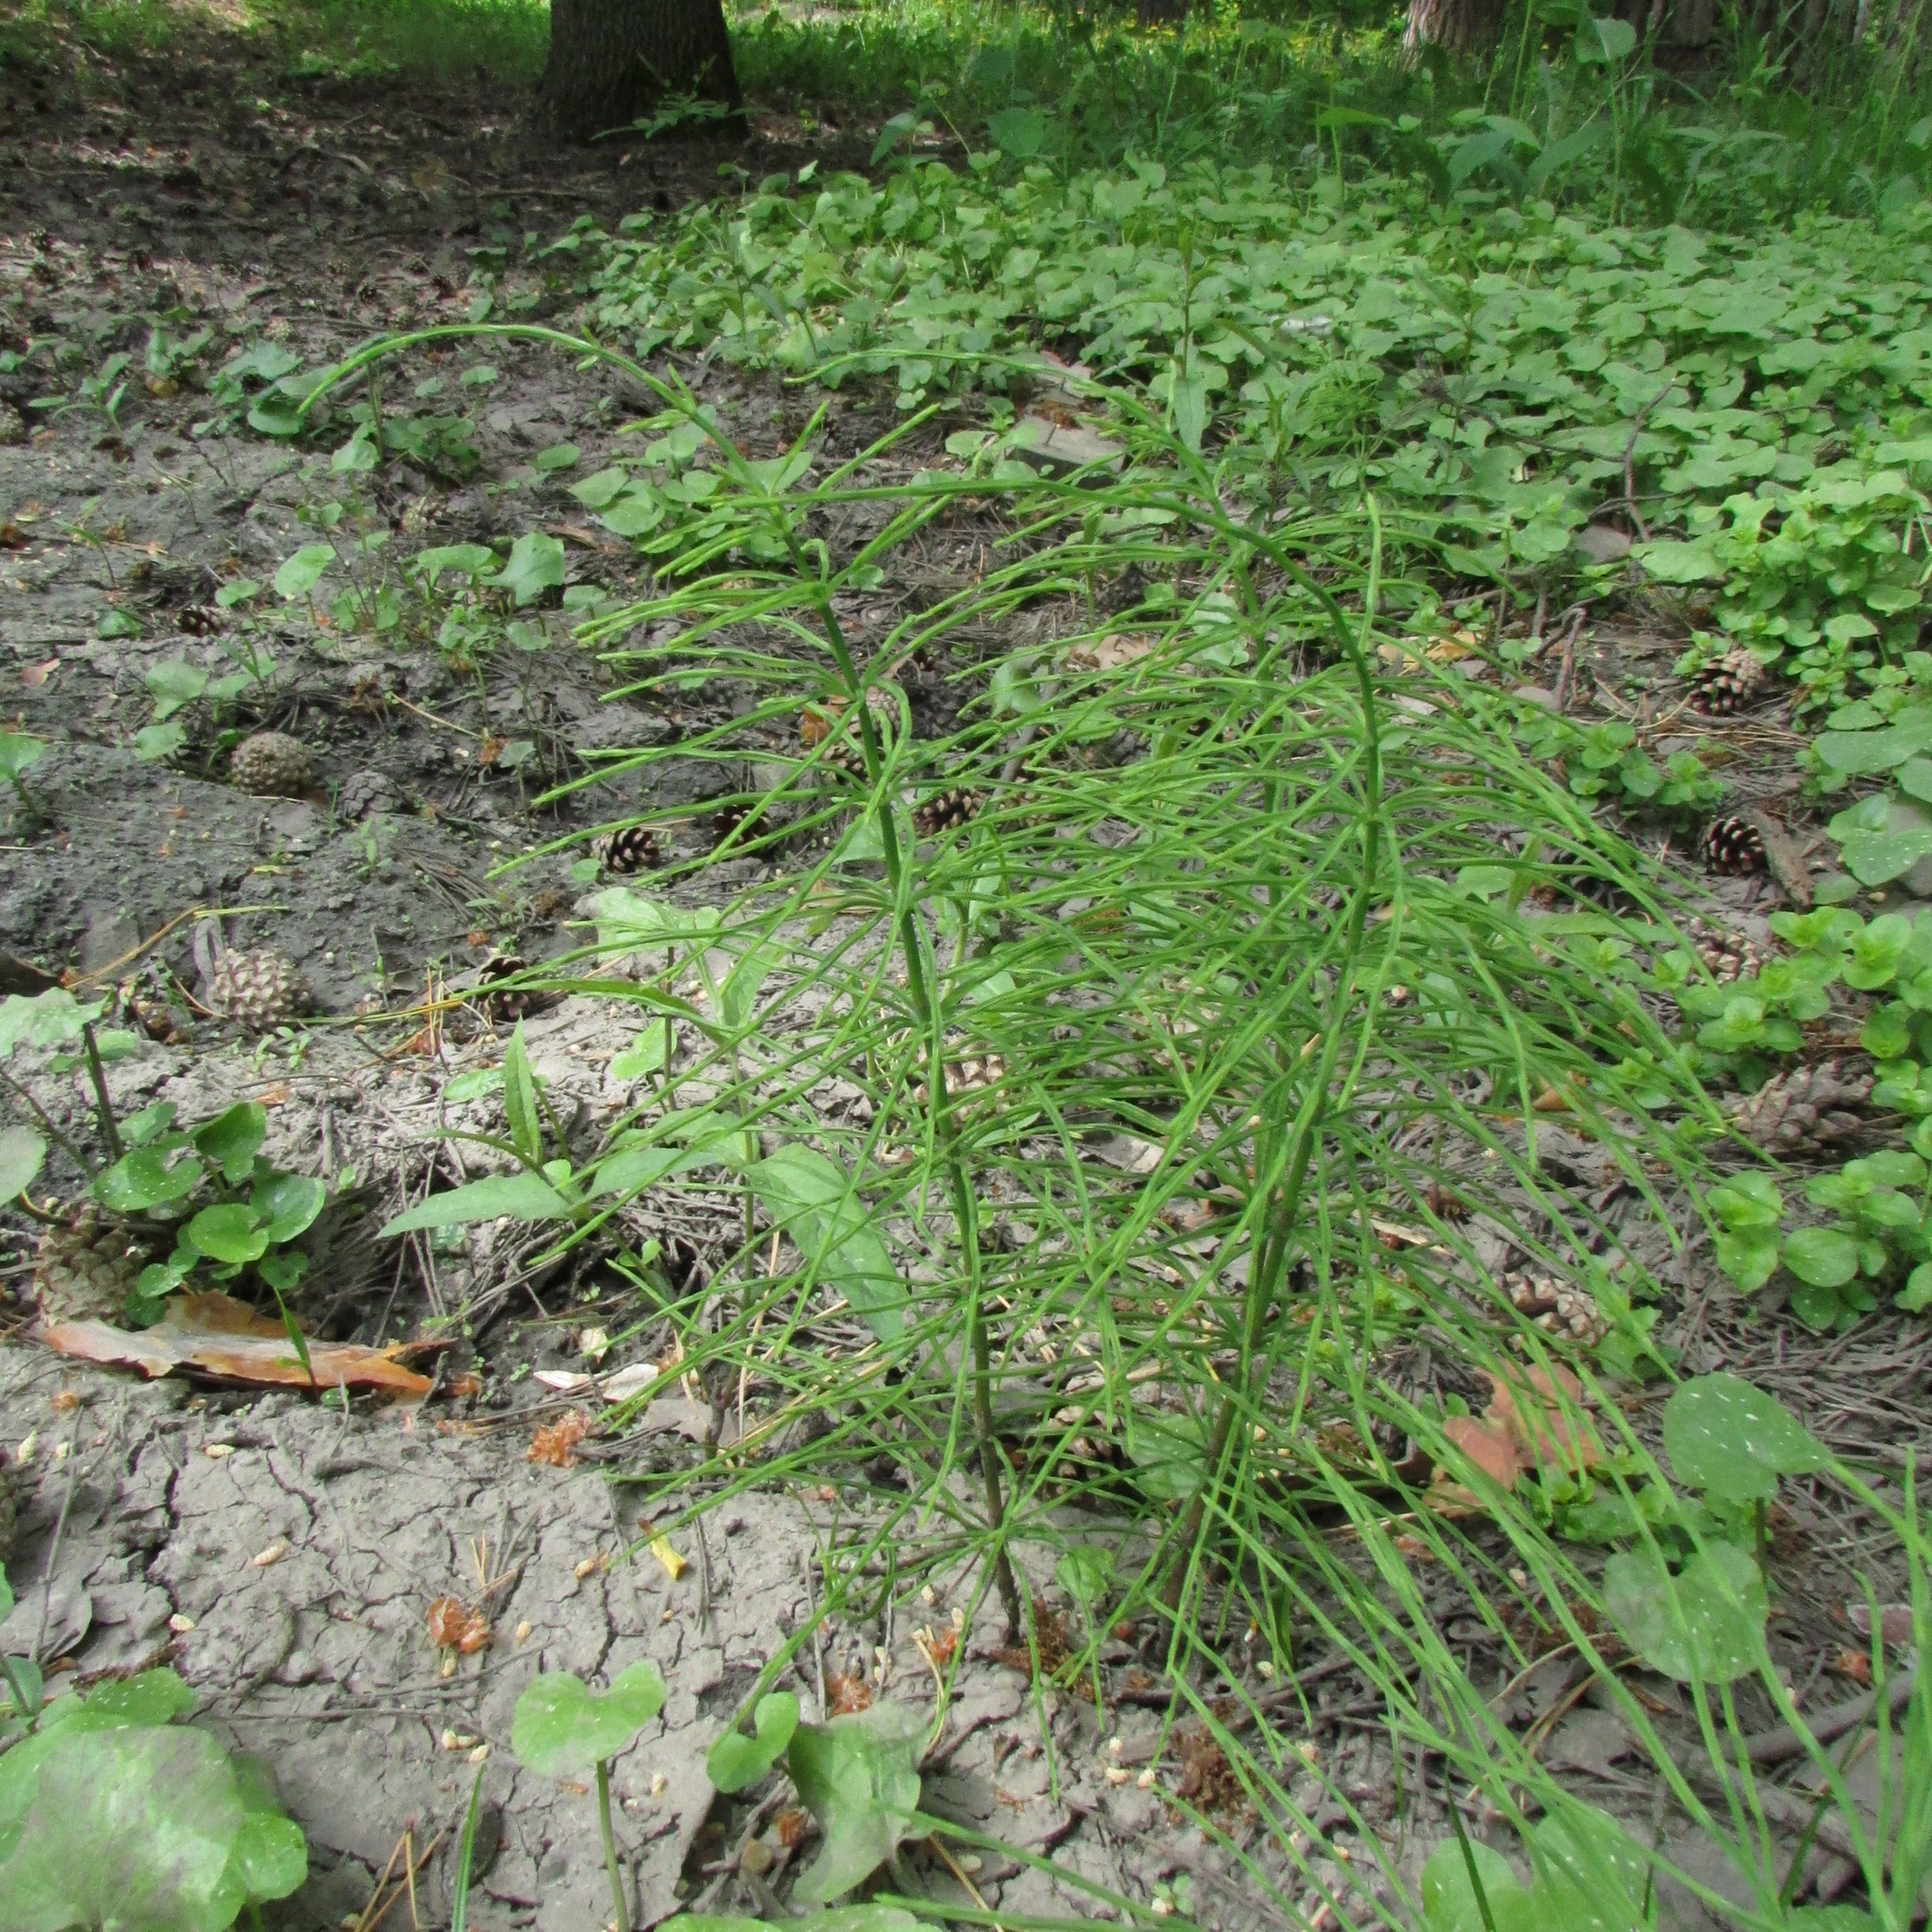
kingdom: Plantae
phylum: Tracheophyta
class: Polypodiopsida
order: Equisetales
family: Equisetaceae
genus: Equisetum
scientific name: Equisetum arvense
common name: Field horsetail
